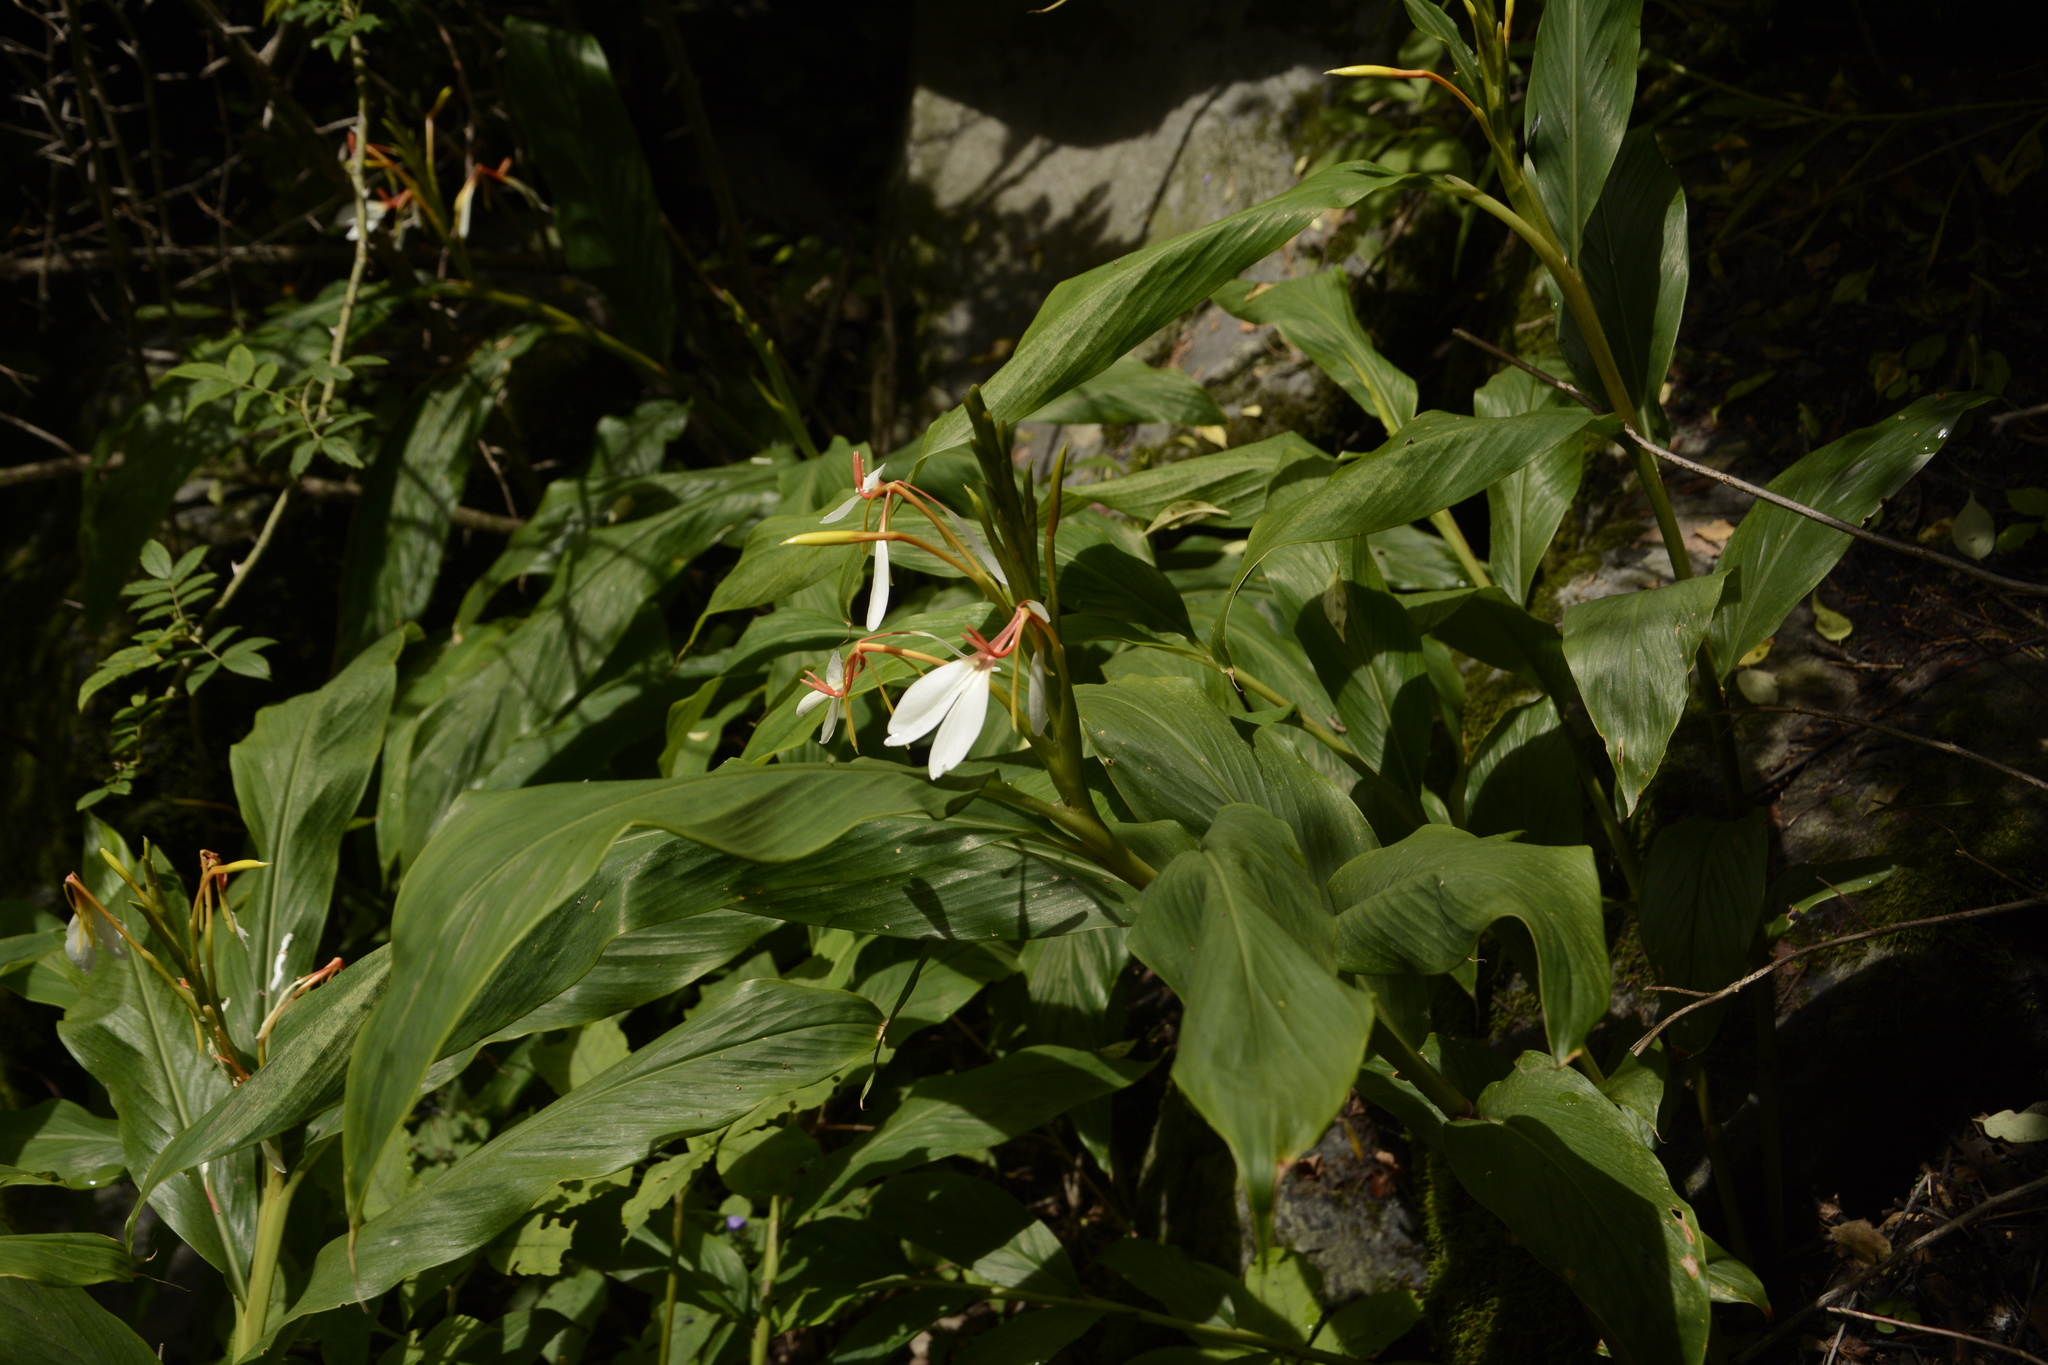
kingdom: Plantae
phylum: Tracheophyta
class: Liliopsida
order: Zingiberales
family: Zingiberaceae
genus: Hedychium
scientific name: Hedychium spicatum
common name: Spiked ginger-lily
